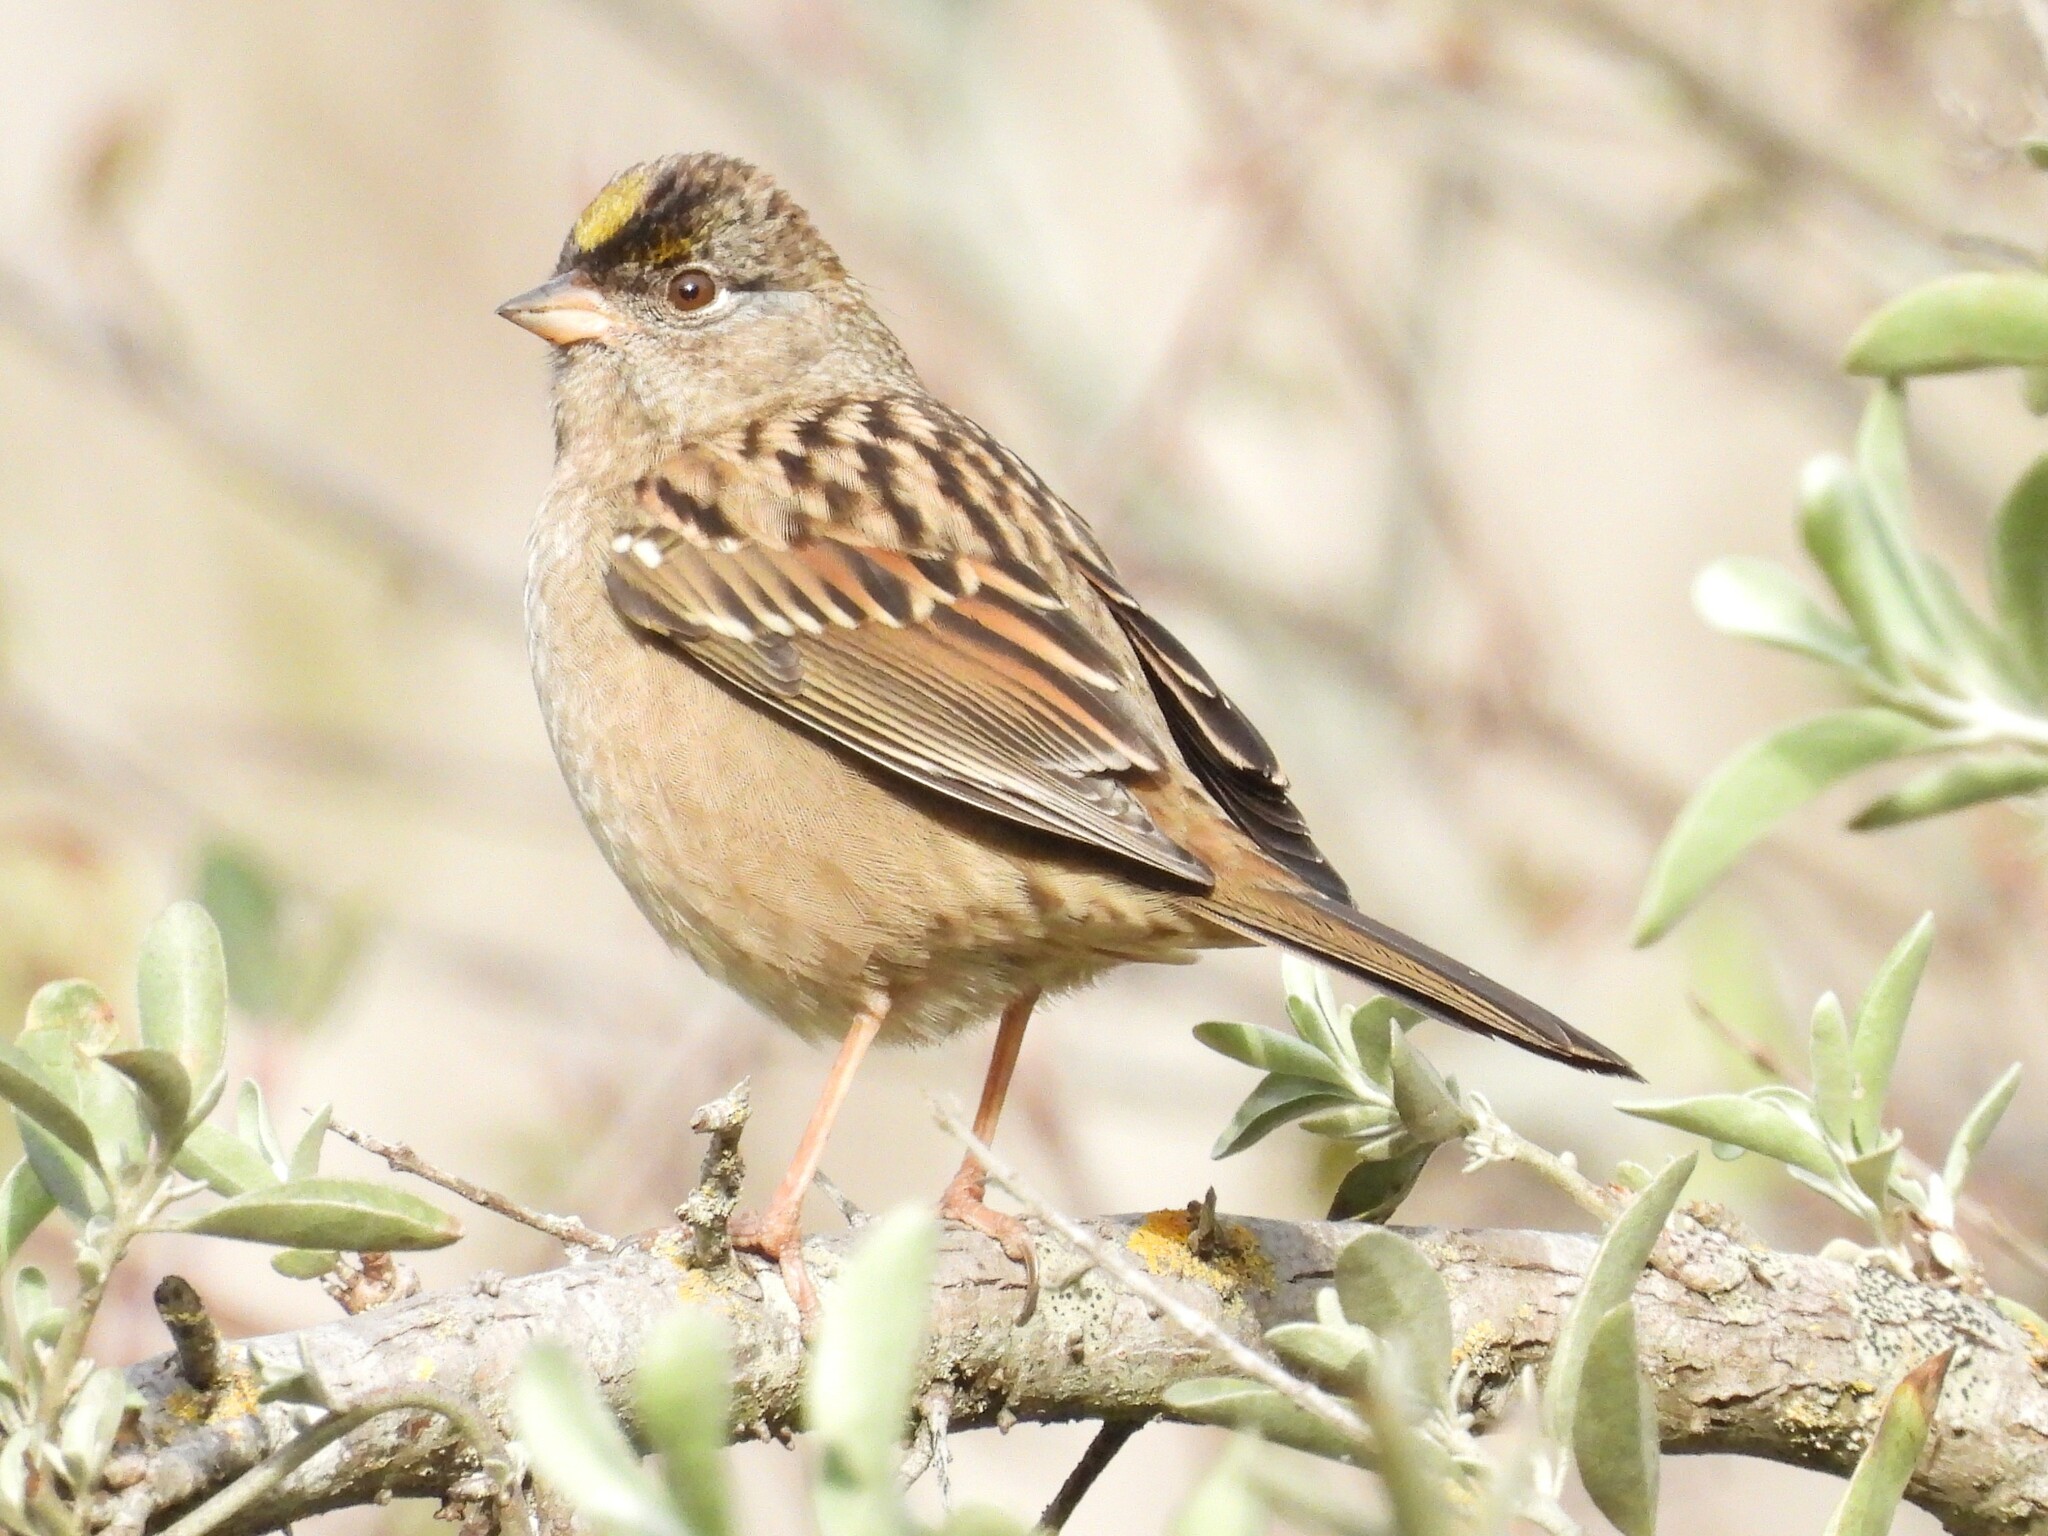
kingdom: Animalia
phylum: Chordata
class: Aves
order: Passeriformes
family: Passerellidae
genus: Zonotrichia
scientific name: Zonotrichia atricapilla
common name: Golden-crowned sparrow
